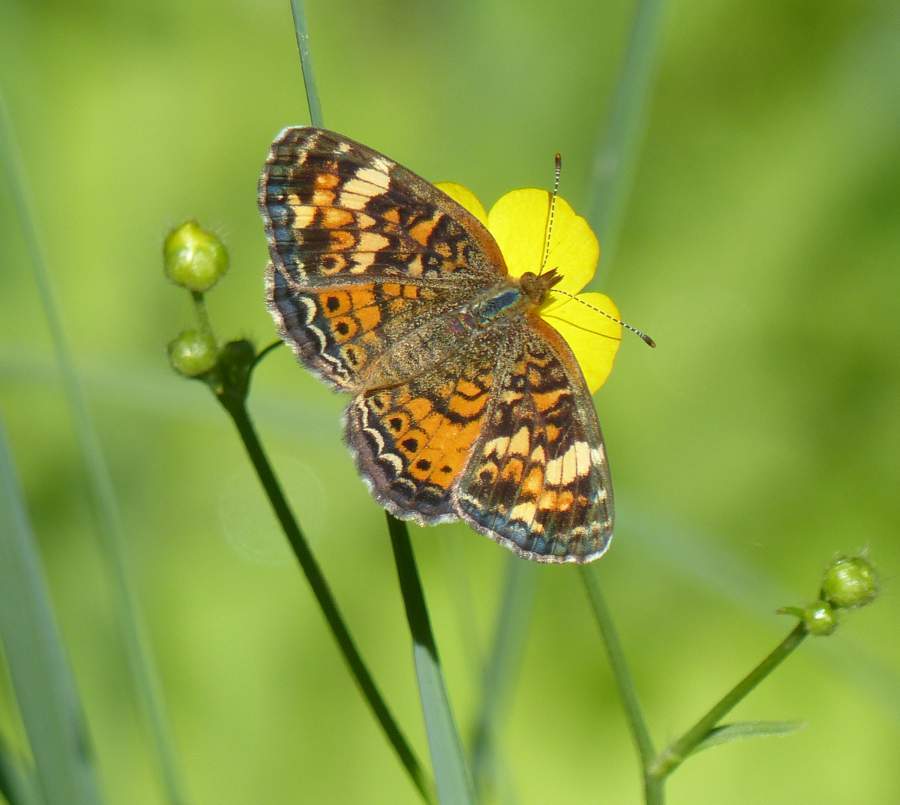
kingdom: Animalia
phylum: Arthropoda
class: Insecta
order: Lepidoptera
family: Nymphalidae
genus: Phyciodes
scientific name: Phyciodes tharos
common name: Pearl crescent
